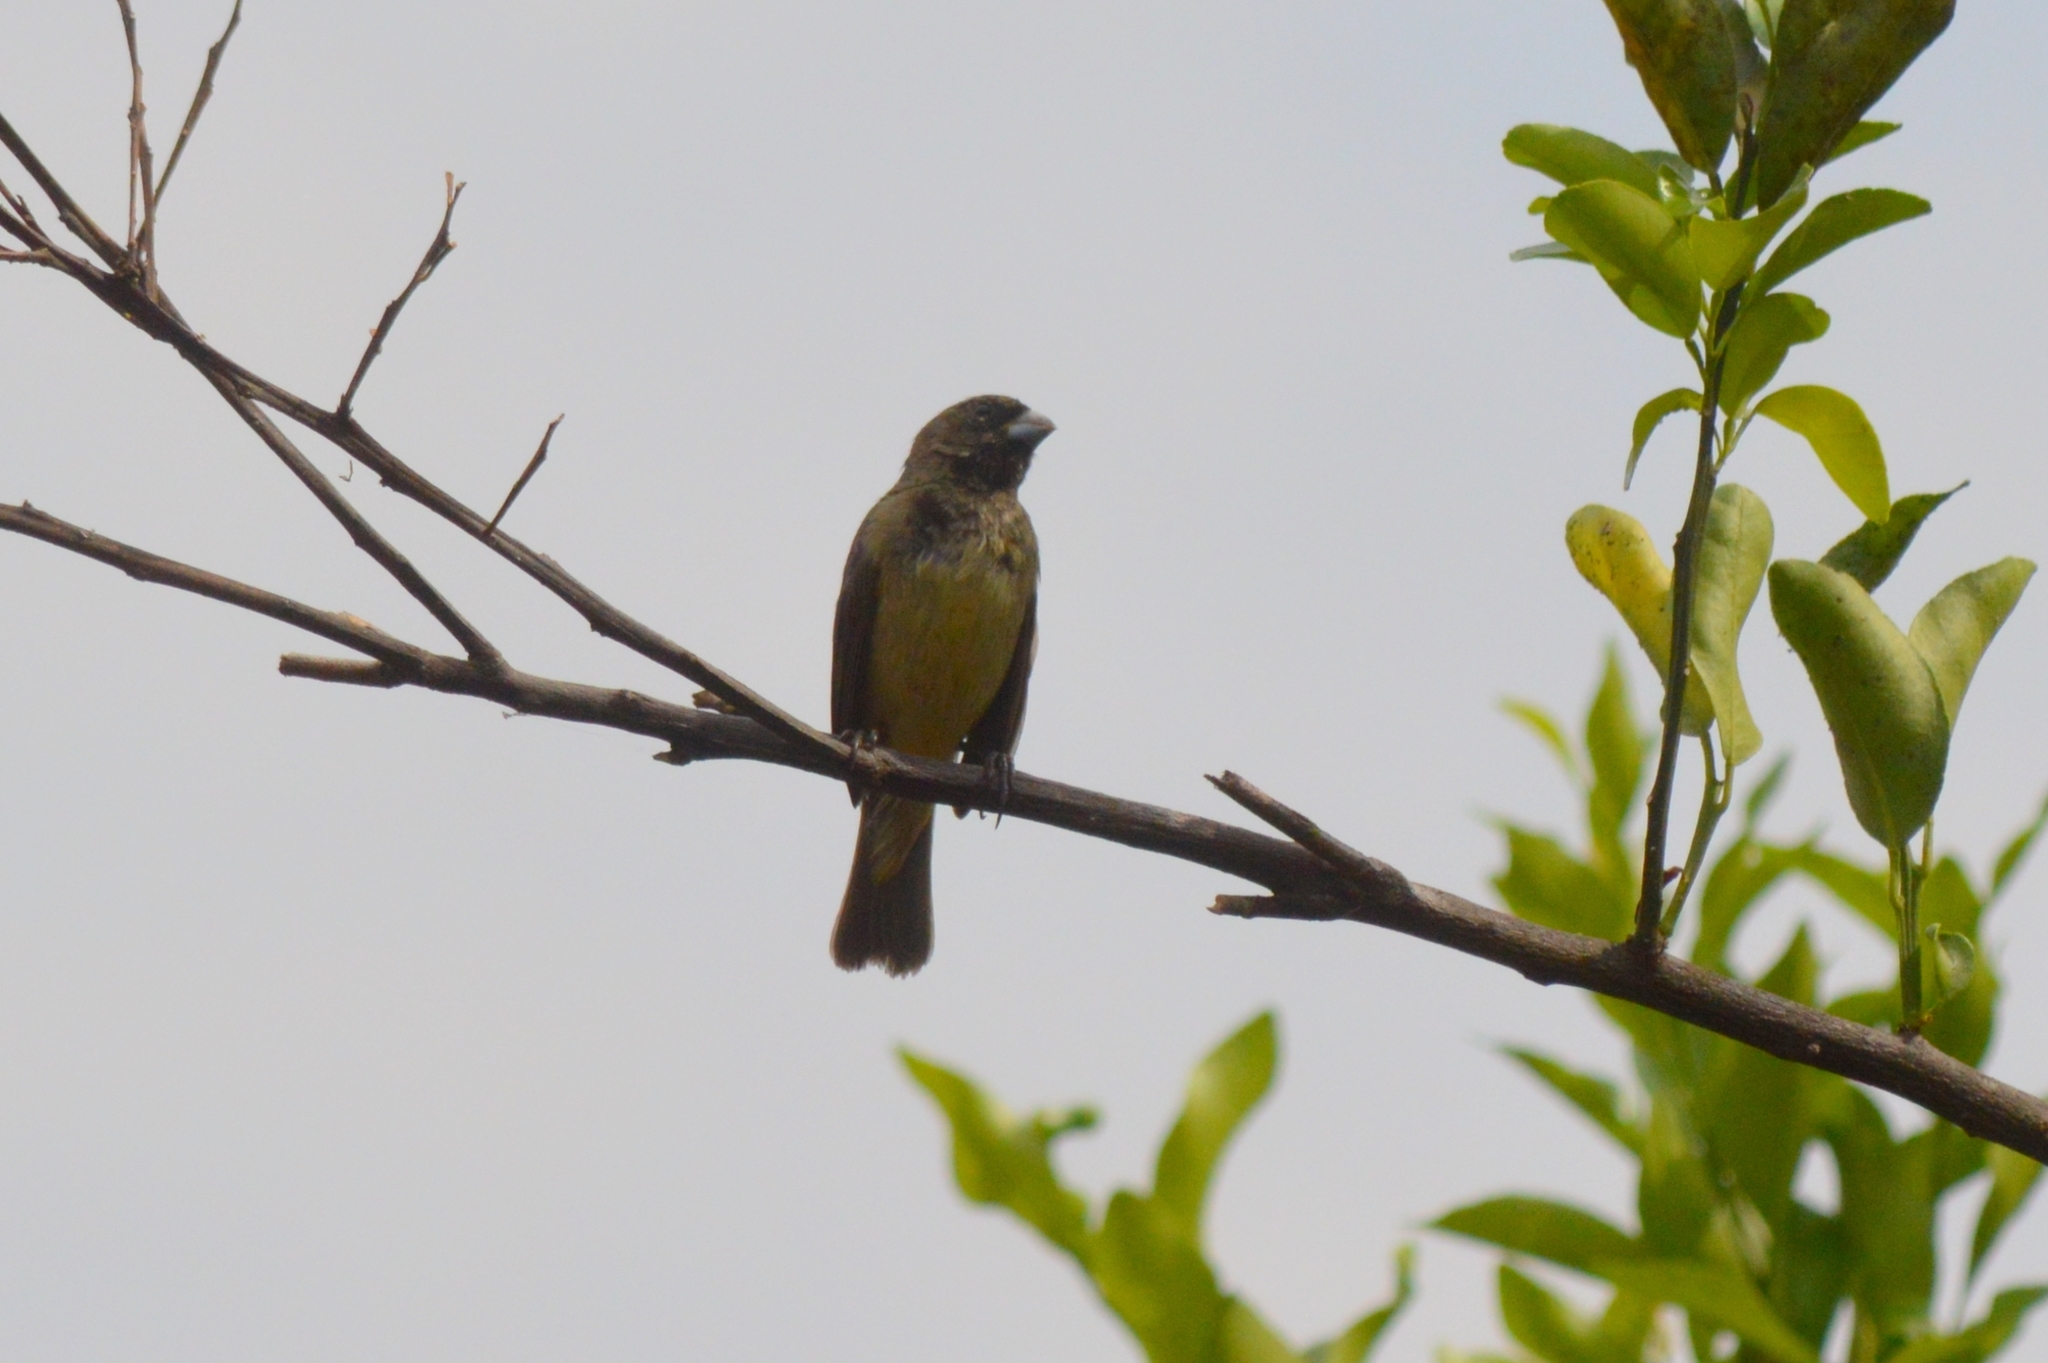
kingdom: Animalia
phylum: Chordata
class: Aves
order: Passeriformes
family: Thraupidae
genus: Sporophila
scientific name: Sporophila nigricollis
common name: Yellow-bellied seedeater
